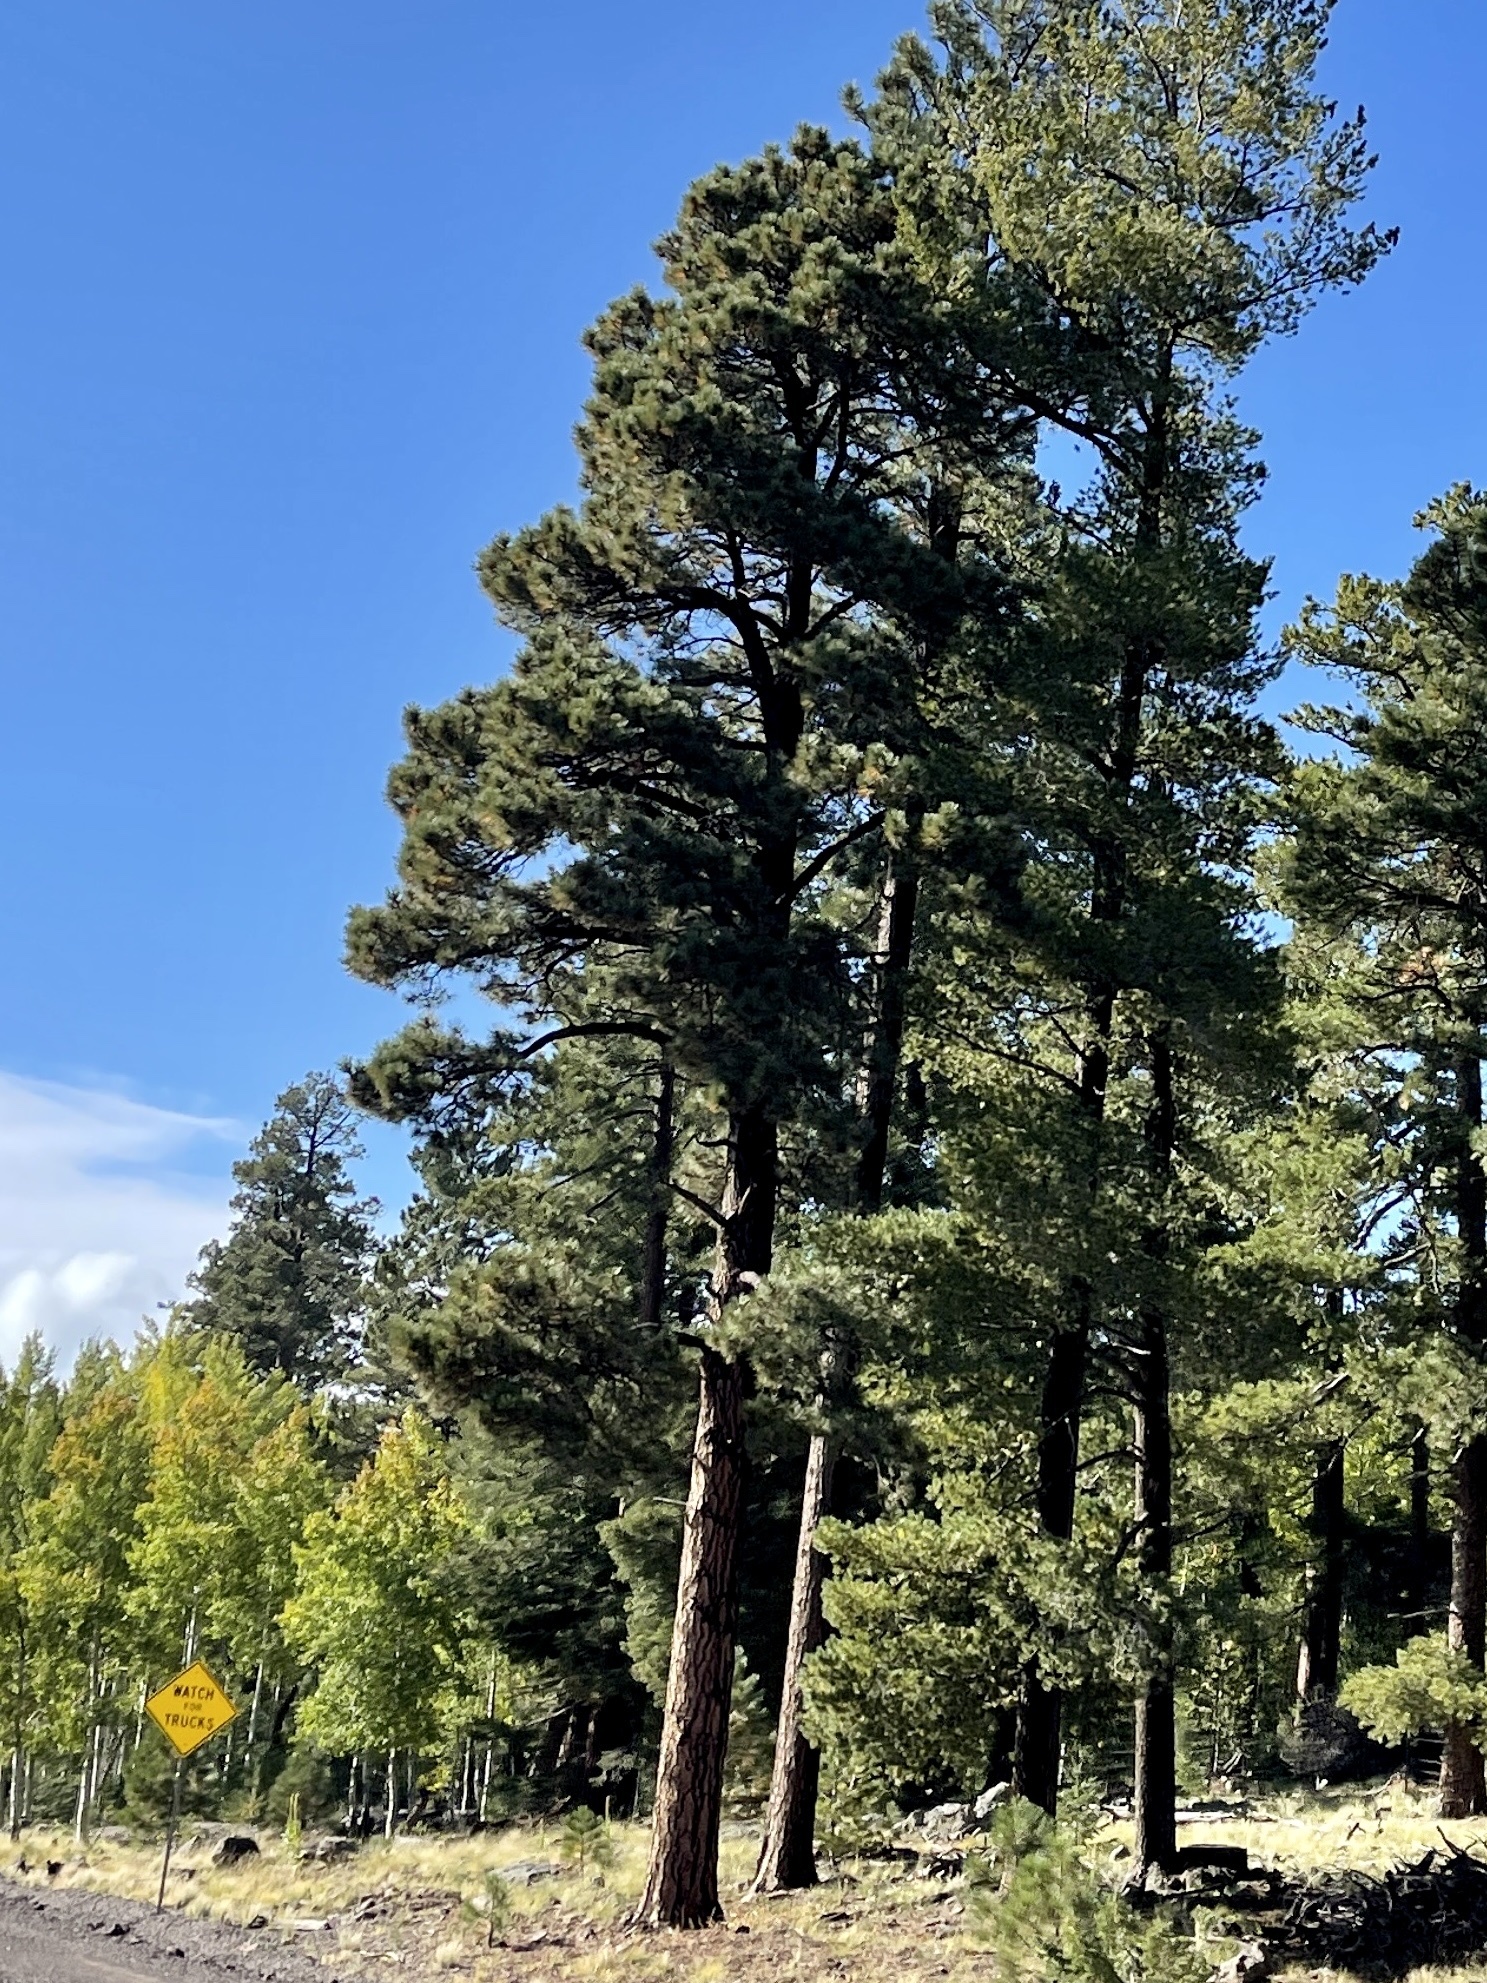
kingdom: Plantae
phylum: Tracheophyta
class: Pinopsida
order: Pinales
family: Pinaceae
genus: Pinus
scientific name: Pinus ponderosa
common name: Western yellow-pine
